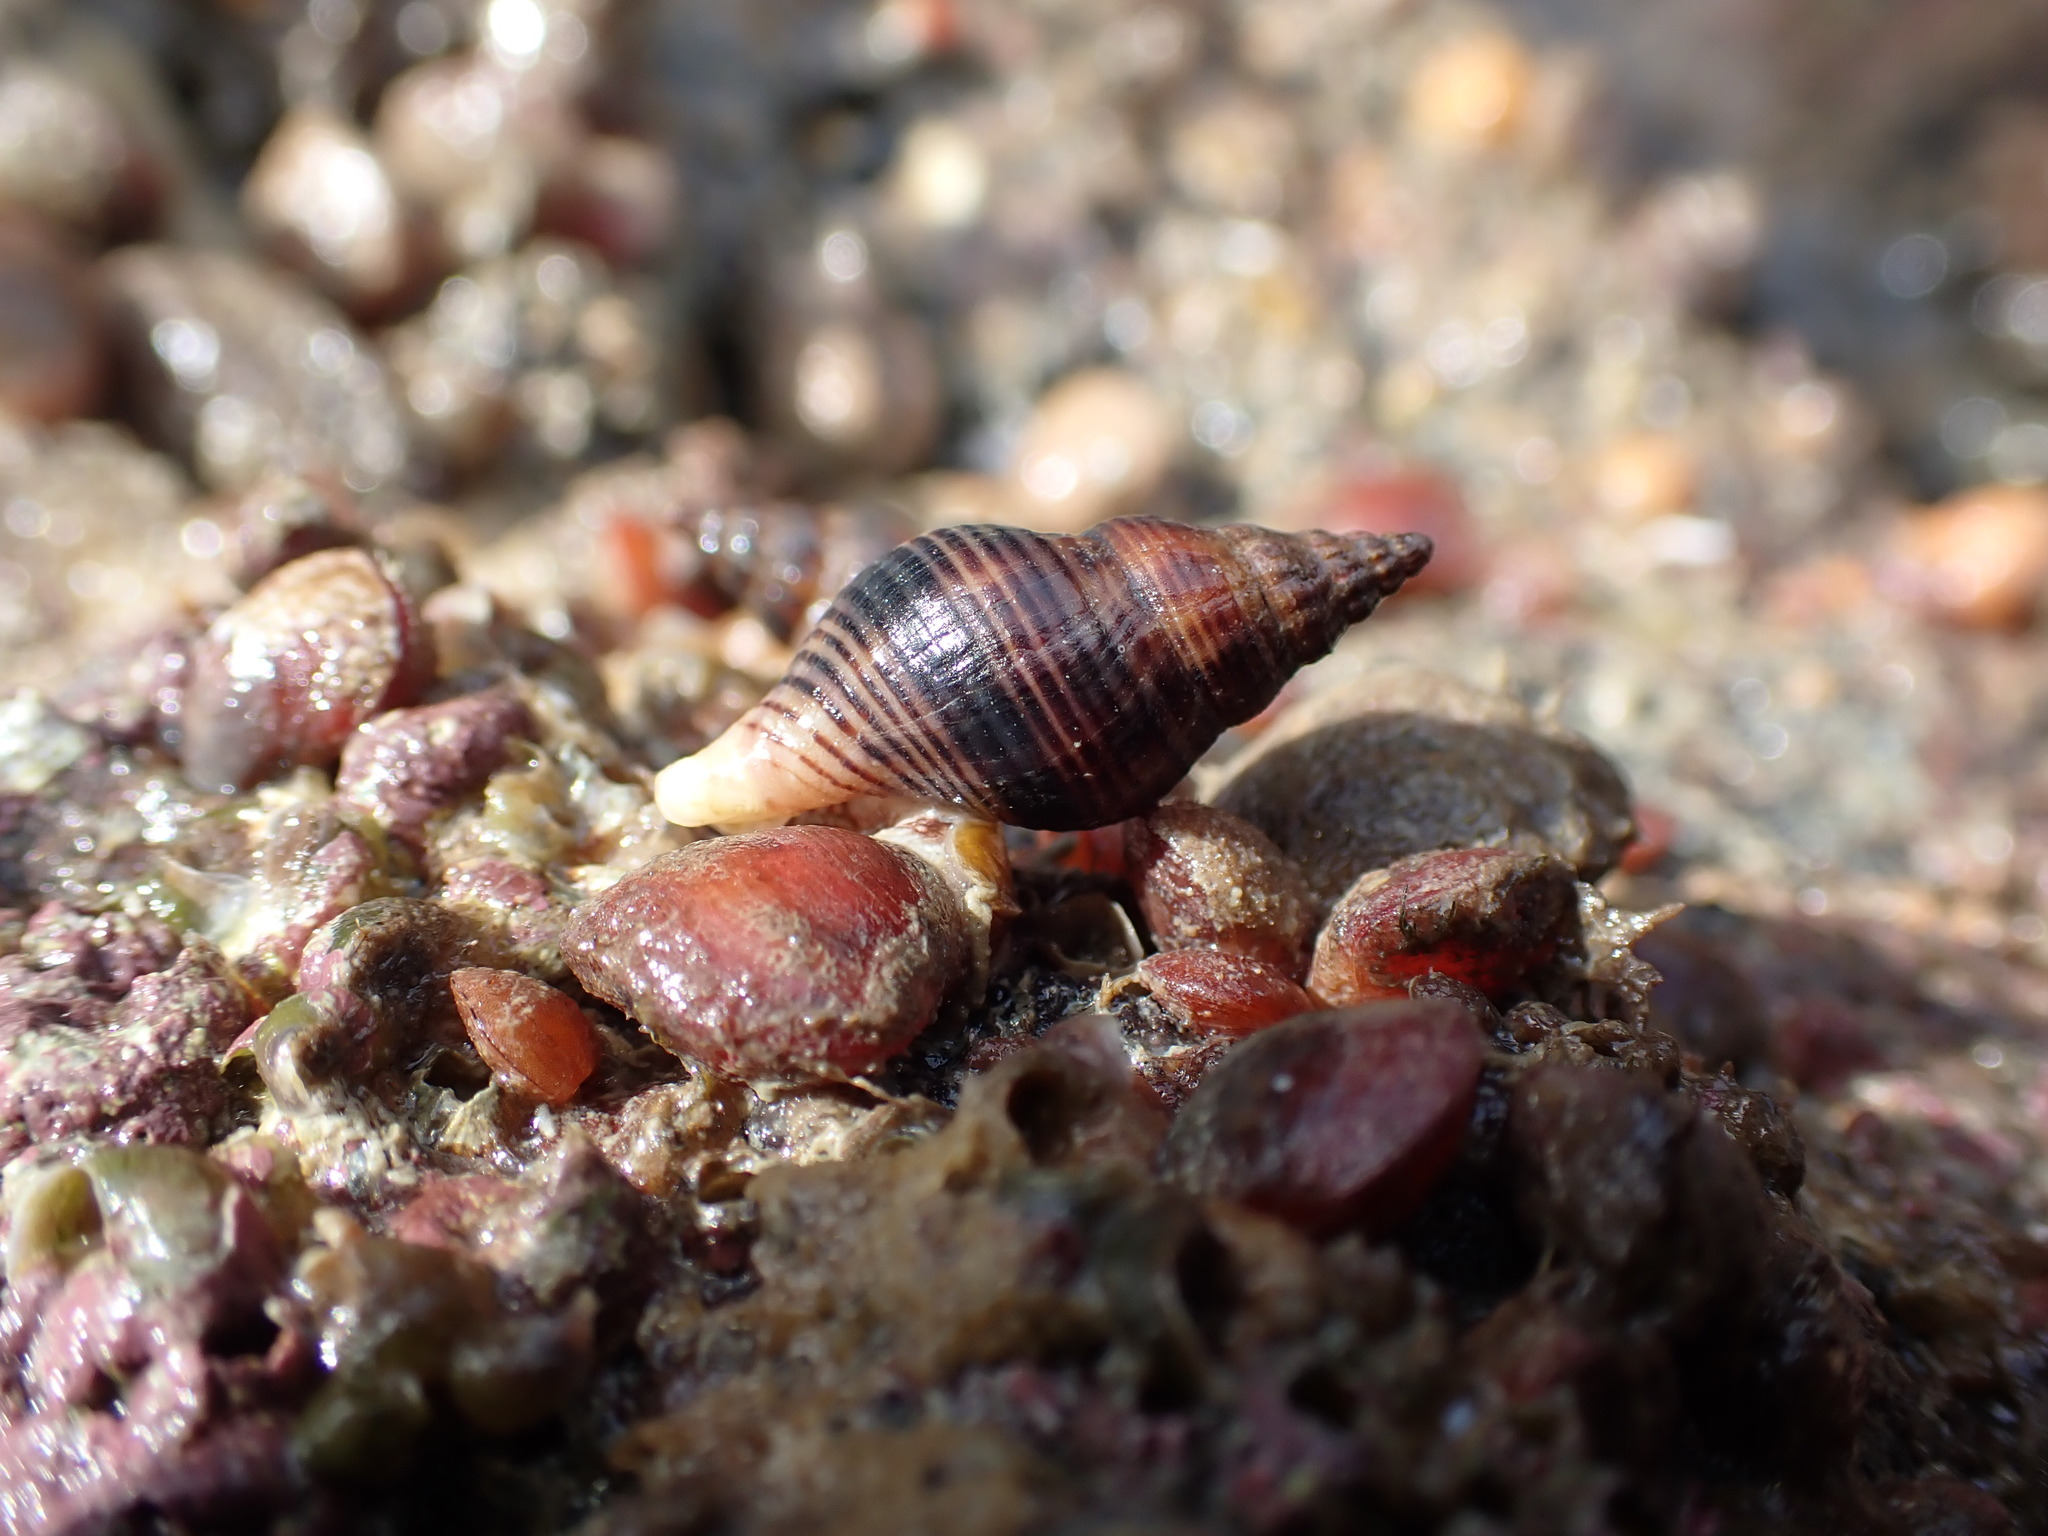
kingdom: Animalia
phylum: Mollusca
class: Gastropoda
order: Neogastropoda
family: Tudiclidae
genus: Buccinulum
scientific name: Buccinulum vittatum
